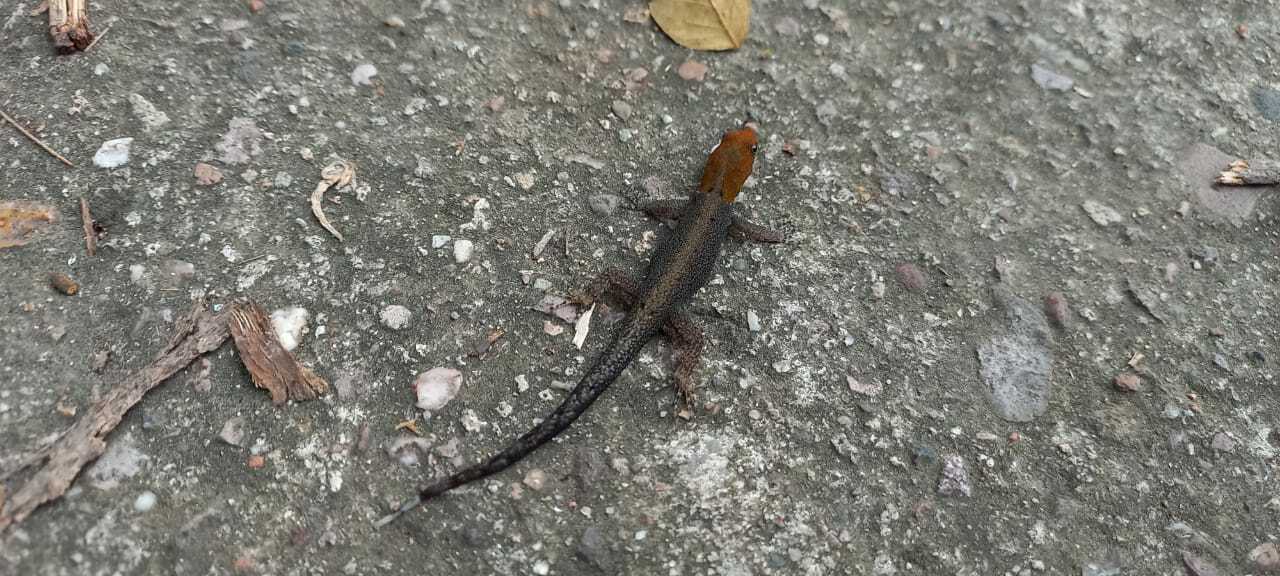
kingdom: Animalia
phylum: Chordata
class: Squamata
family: Sphaerodactylidae
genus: Gonatodes
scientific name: Gonatodes albogularis
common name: Yellow-headed gecko
